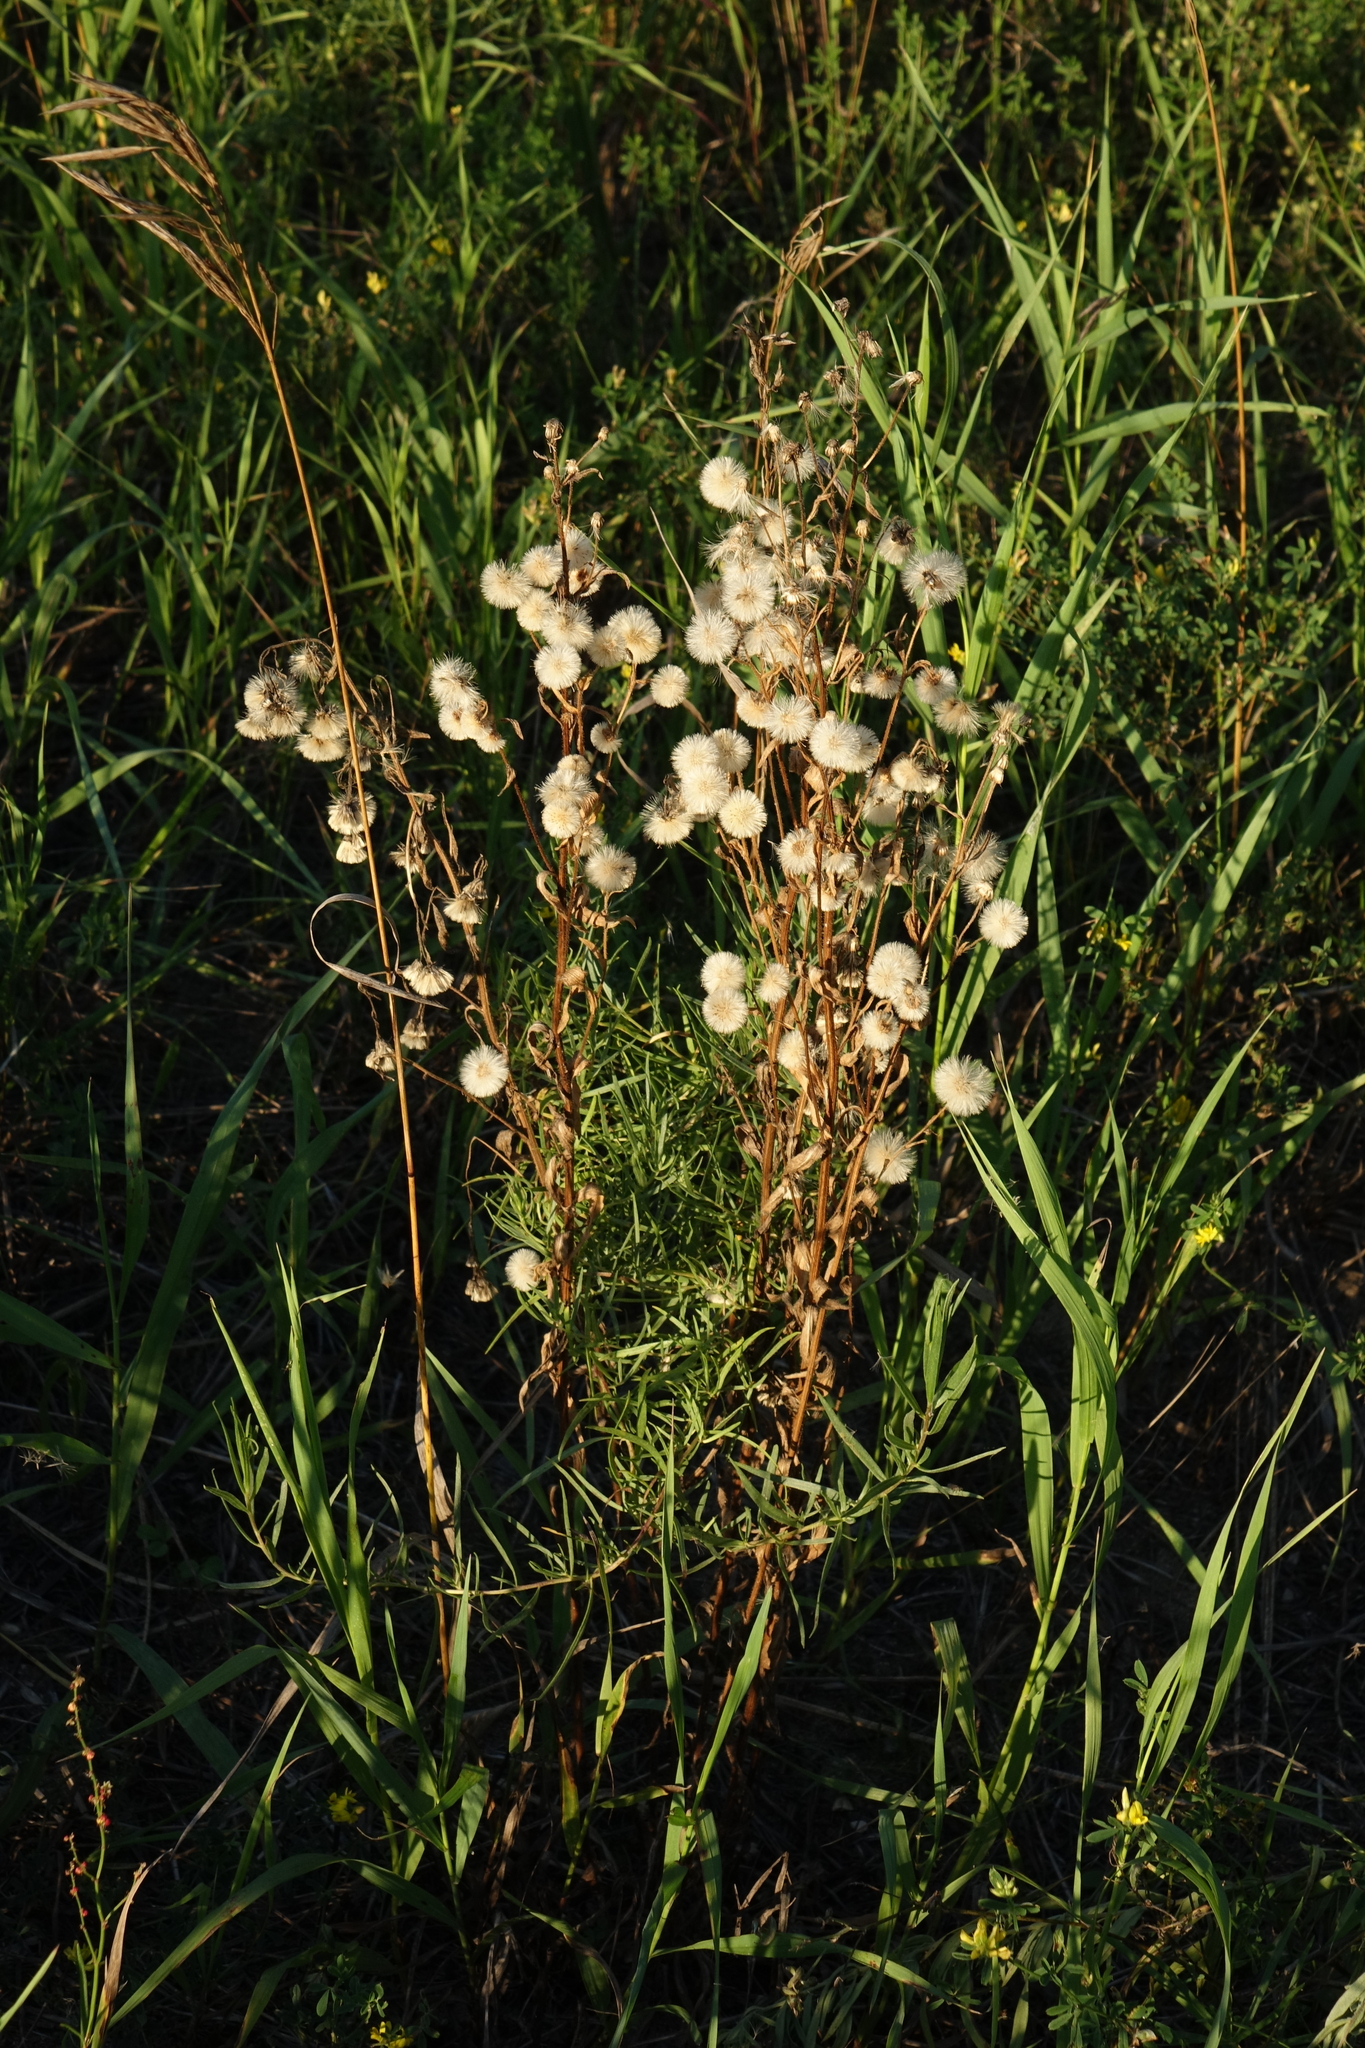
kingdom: Plantae
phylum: Tracheophyta
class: Magnoliopsida
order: Asterales
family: Asteraceae
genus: Erigeron
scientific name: Erigeron acris
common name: Blue fleabane
